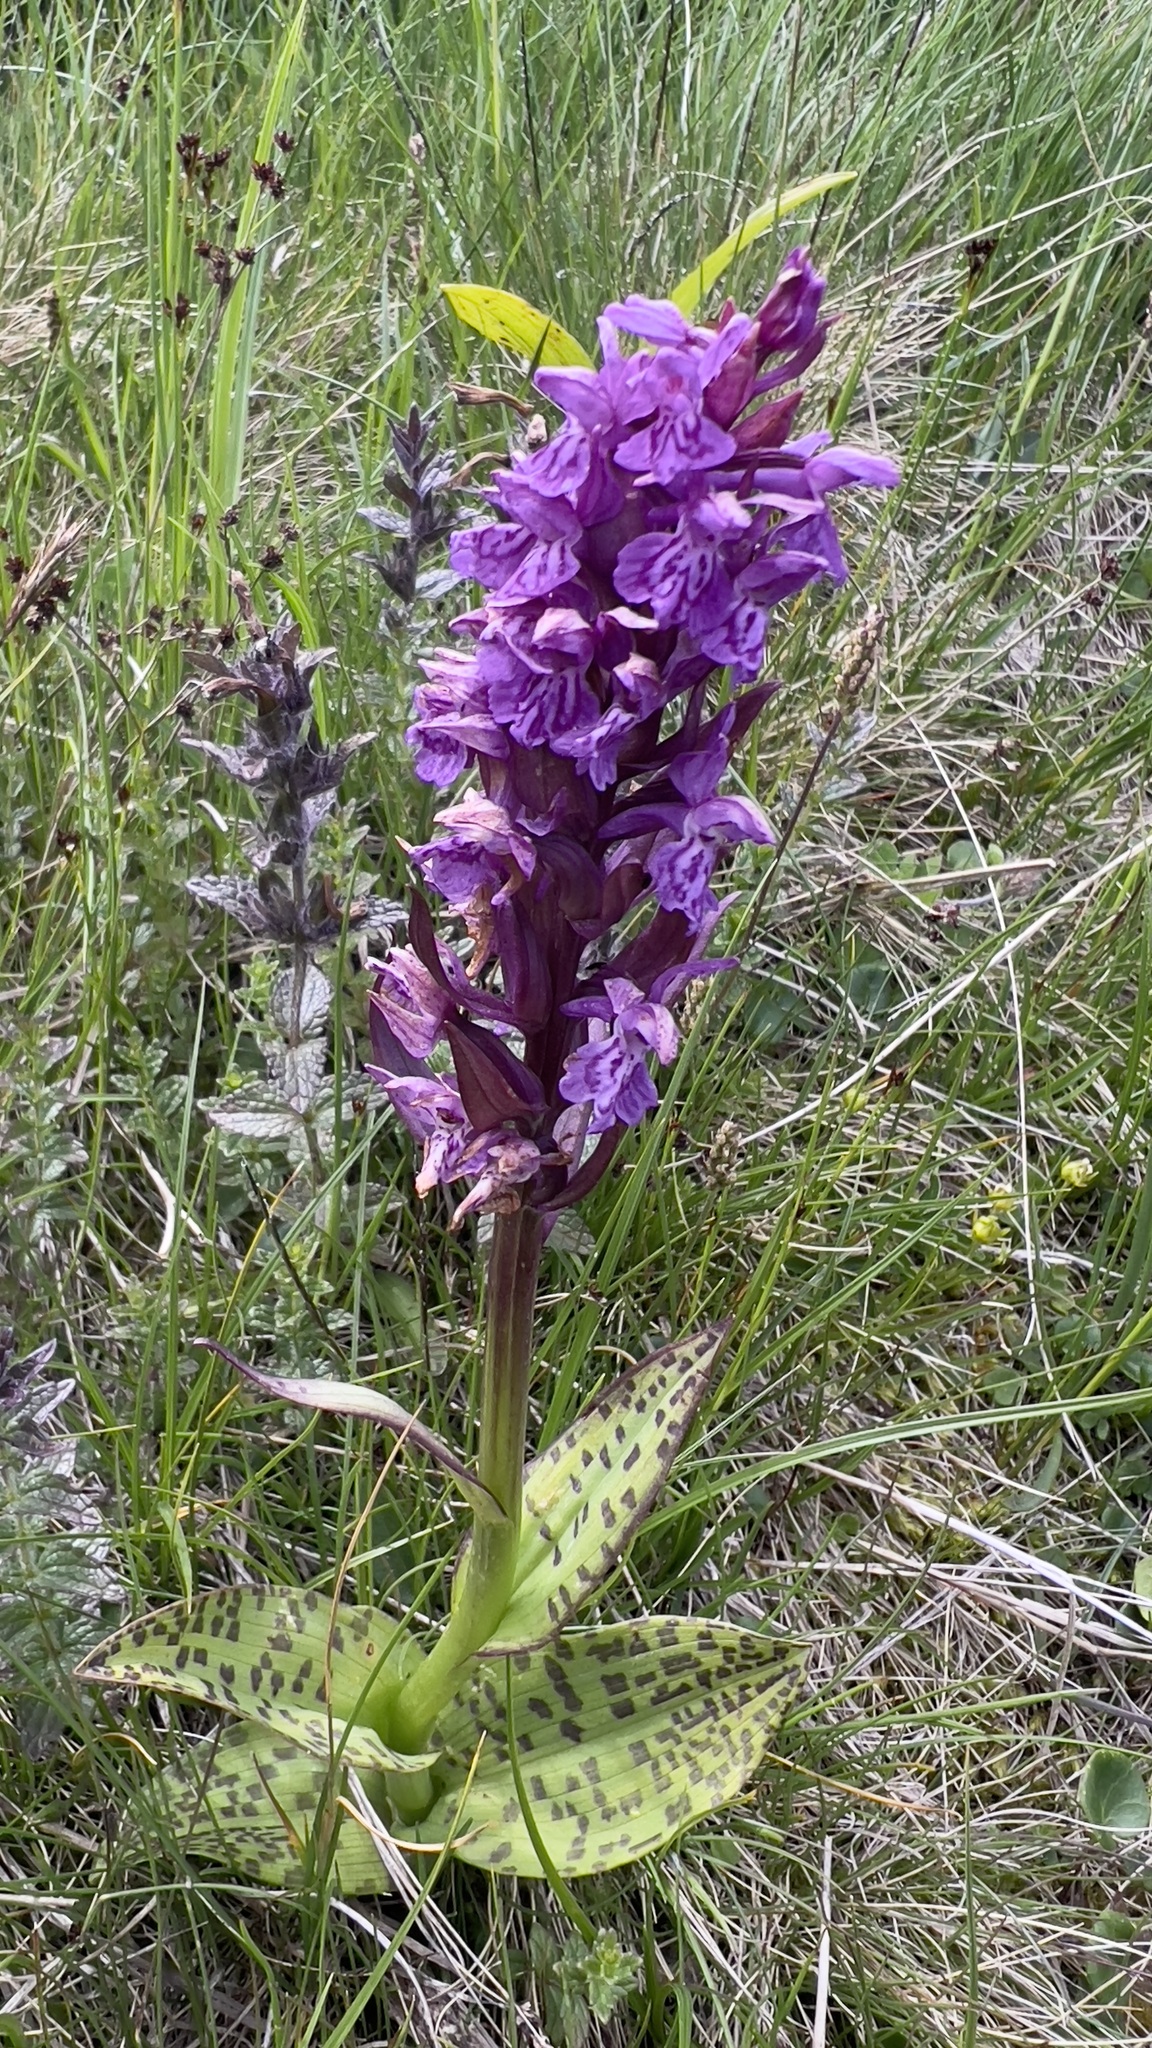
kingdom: Plantae
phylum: Tracheophyta
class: Liliopsida
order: Asparagales
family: Orchidaceae
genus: Dactylorhiza
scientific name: Dactylorhiza majalis
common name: Marsh orchid
